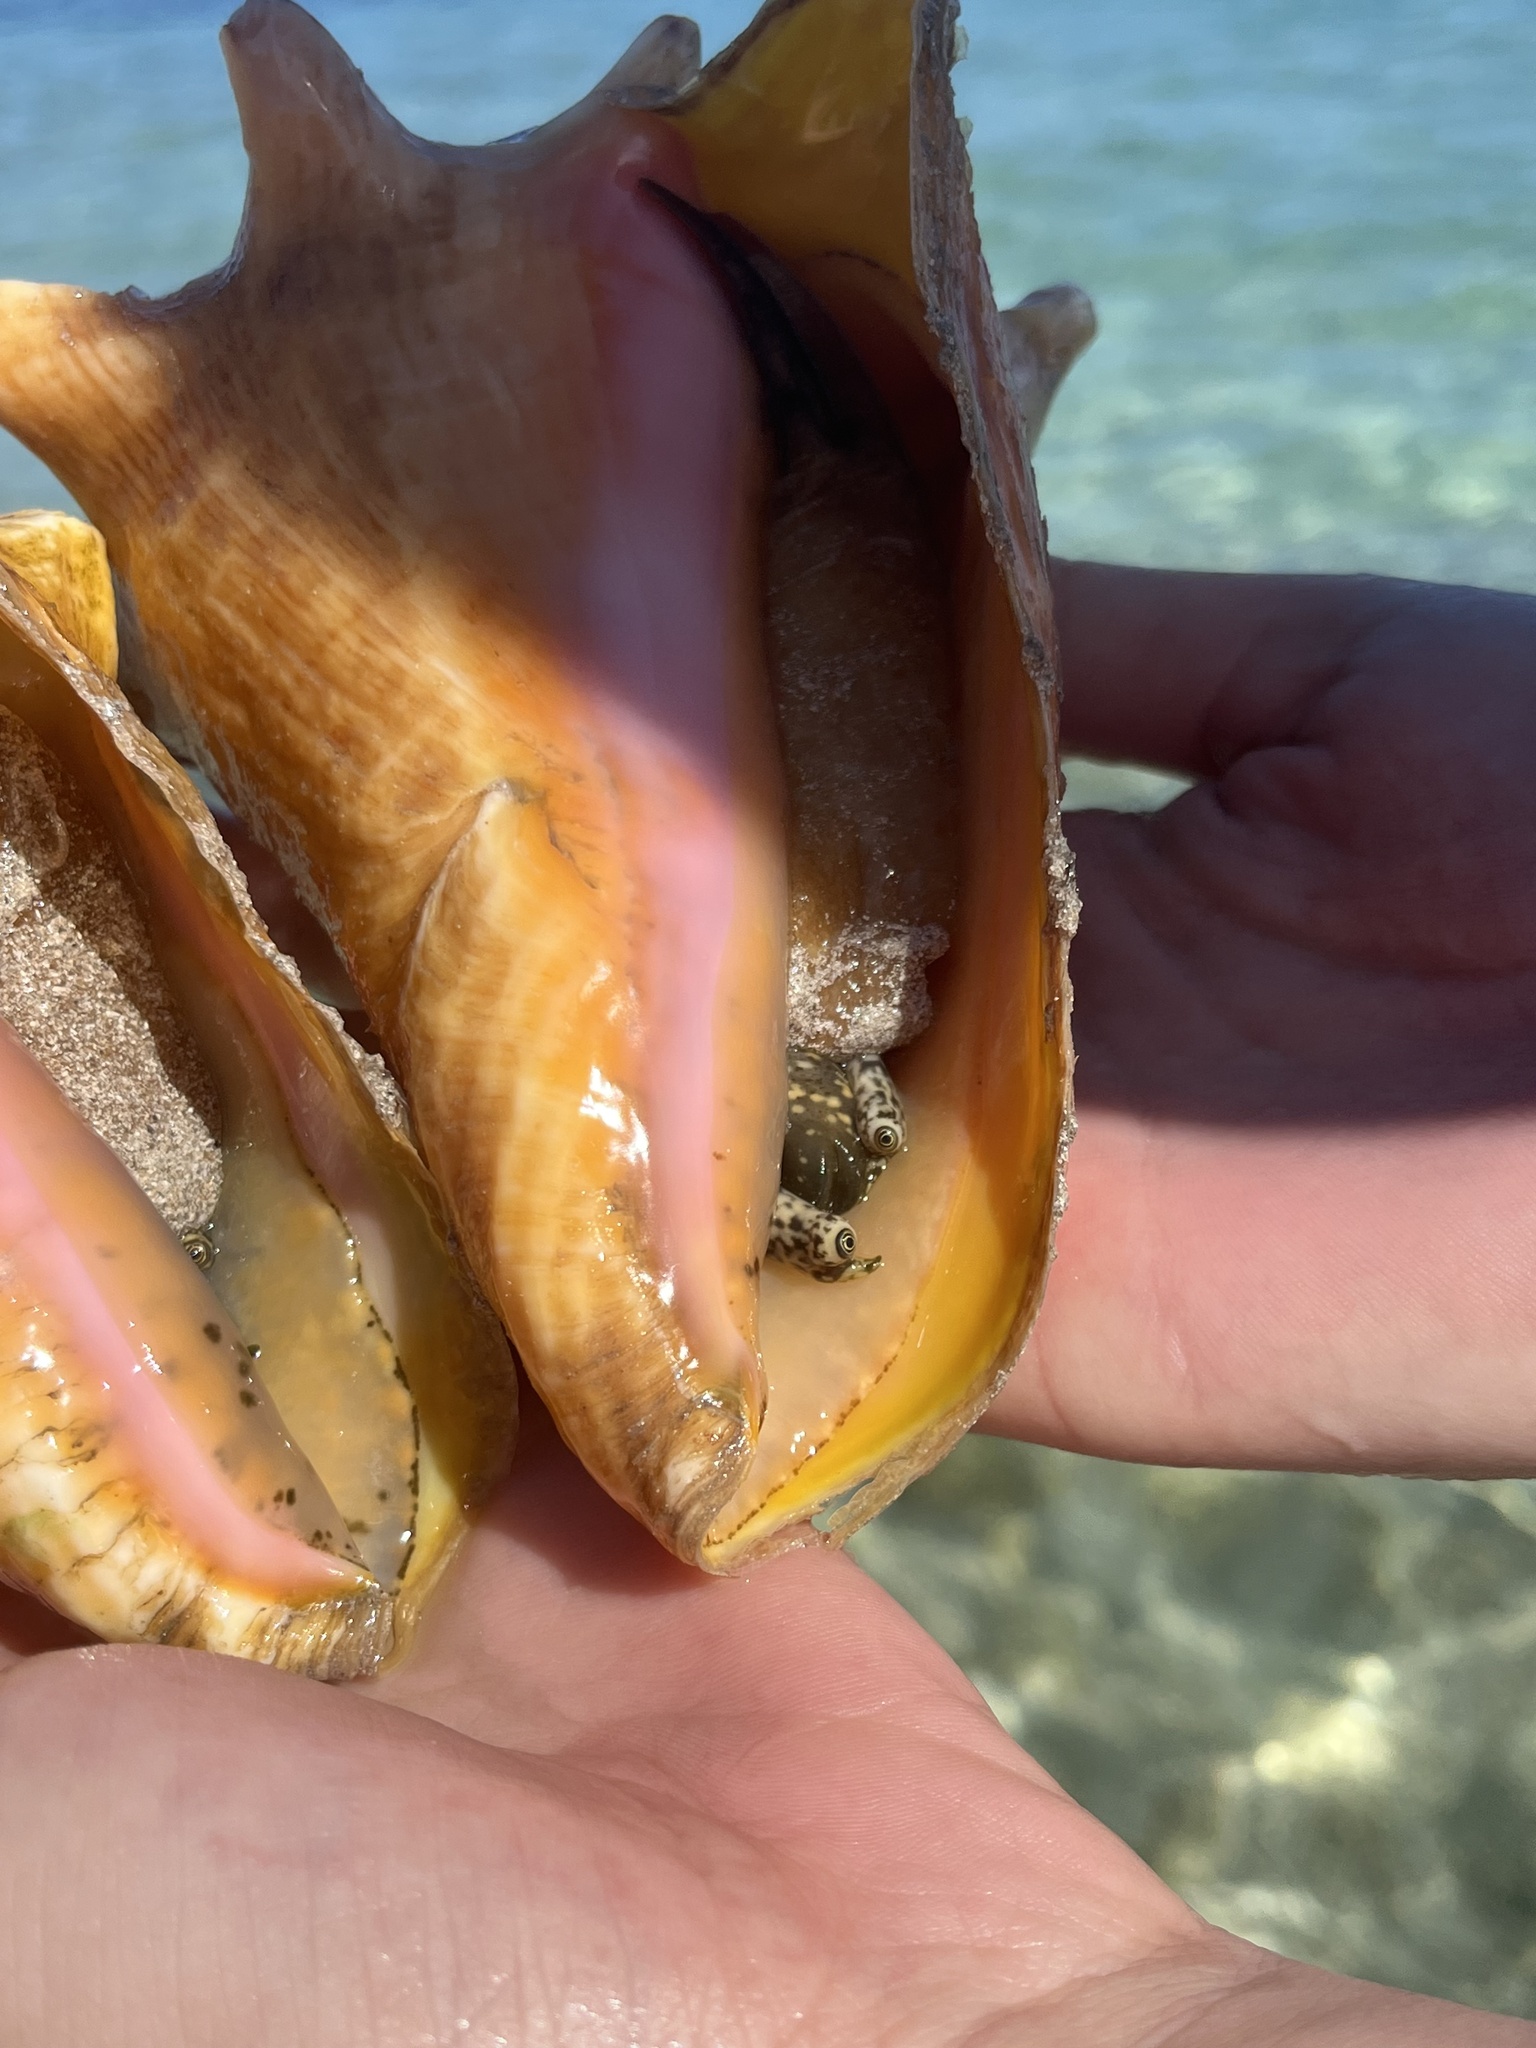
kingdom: Animalia
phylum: Mollusca
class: Gastropoda
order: Littorinimorpha
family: Strombidae
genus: Aliger
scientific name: Aliger gigas
